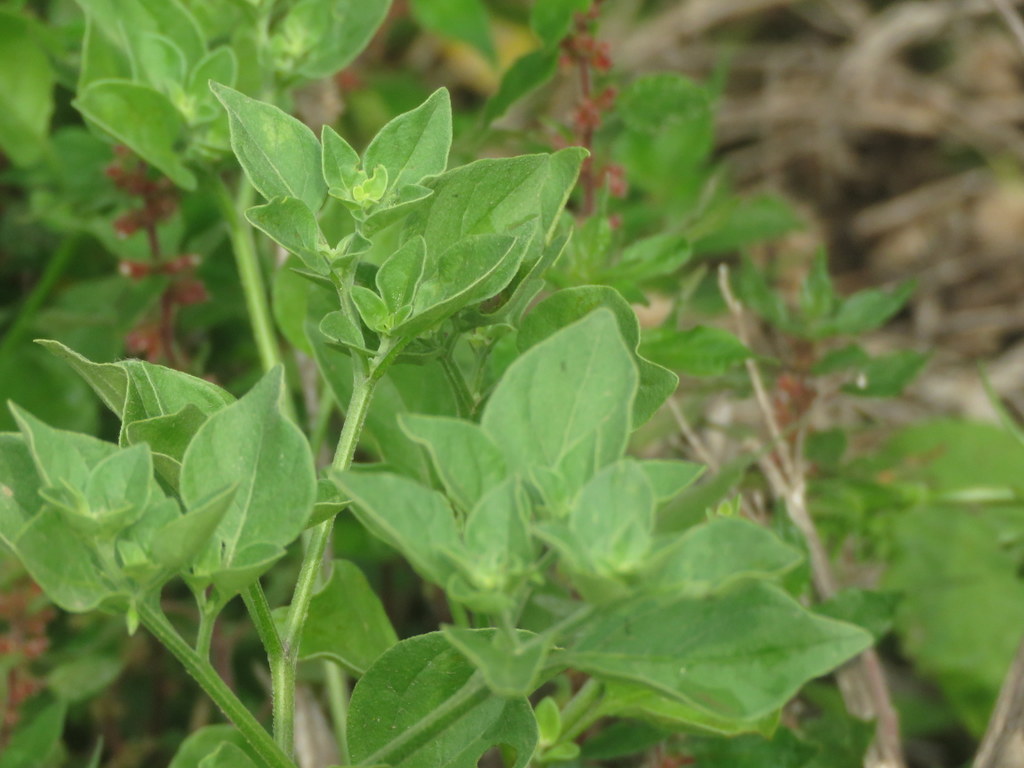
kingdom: Plantae
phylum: Tracheophyta
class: Magnoliopsida
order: Solanales
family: Solanaceae
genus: Salpichroa
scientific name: Salpichroa origanifolia
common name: Lily-of-the-valley-vine
